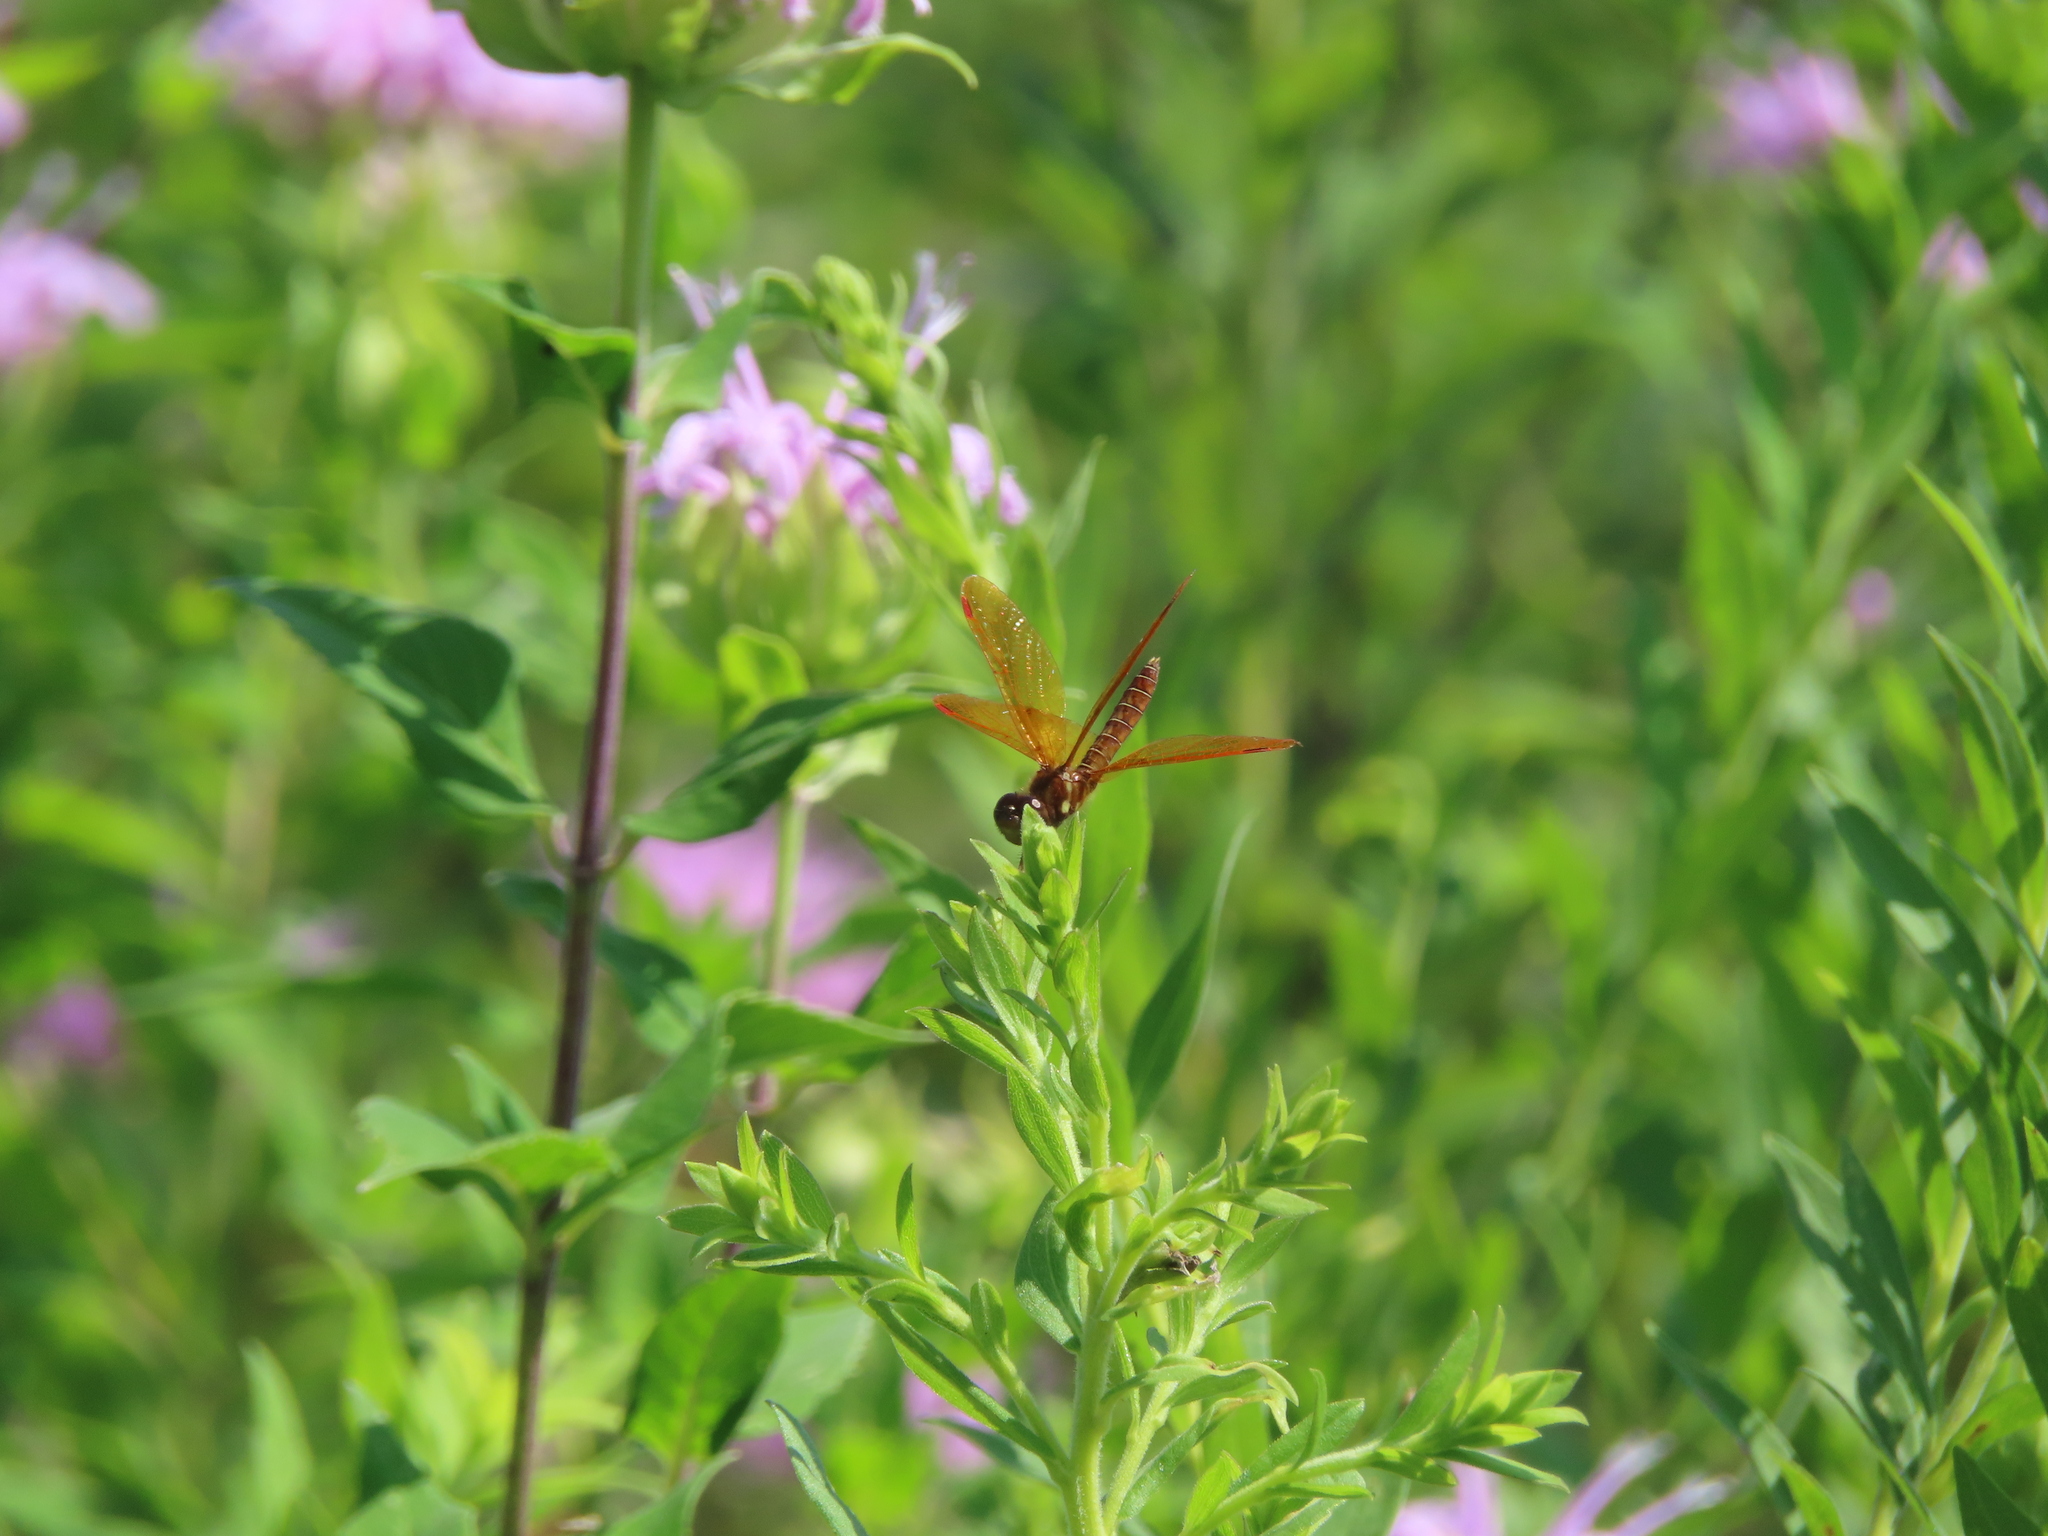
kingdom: Animalia
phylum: Arthropoda
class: Insecta
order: Odonata
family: Libellulidae
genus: Perithemis
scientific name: Perithemis tenera
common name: Eastern amberwing
